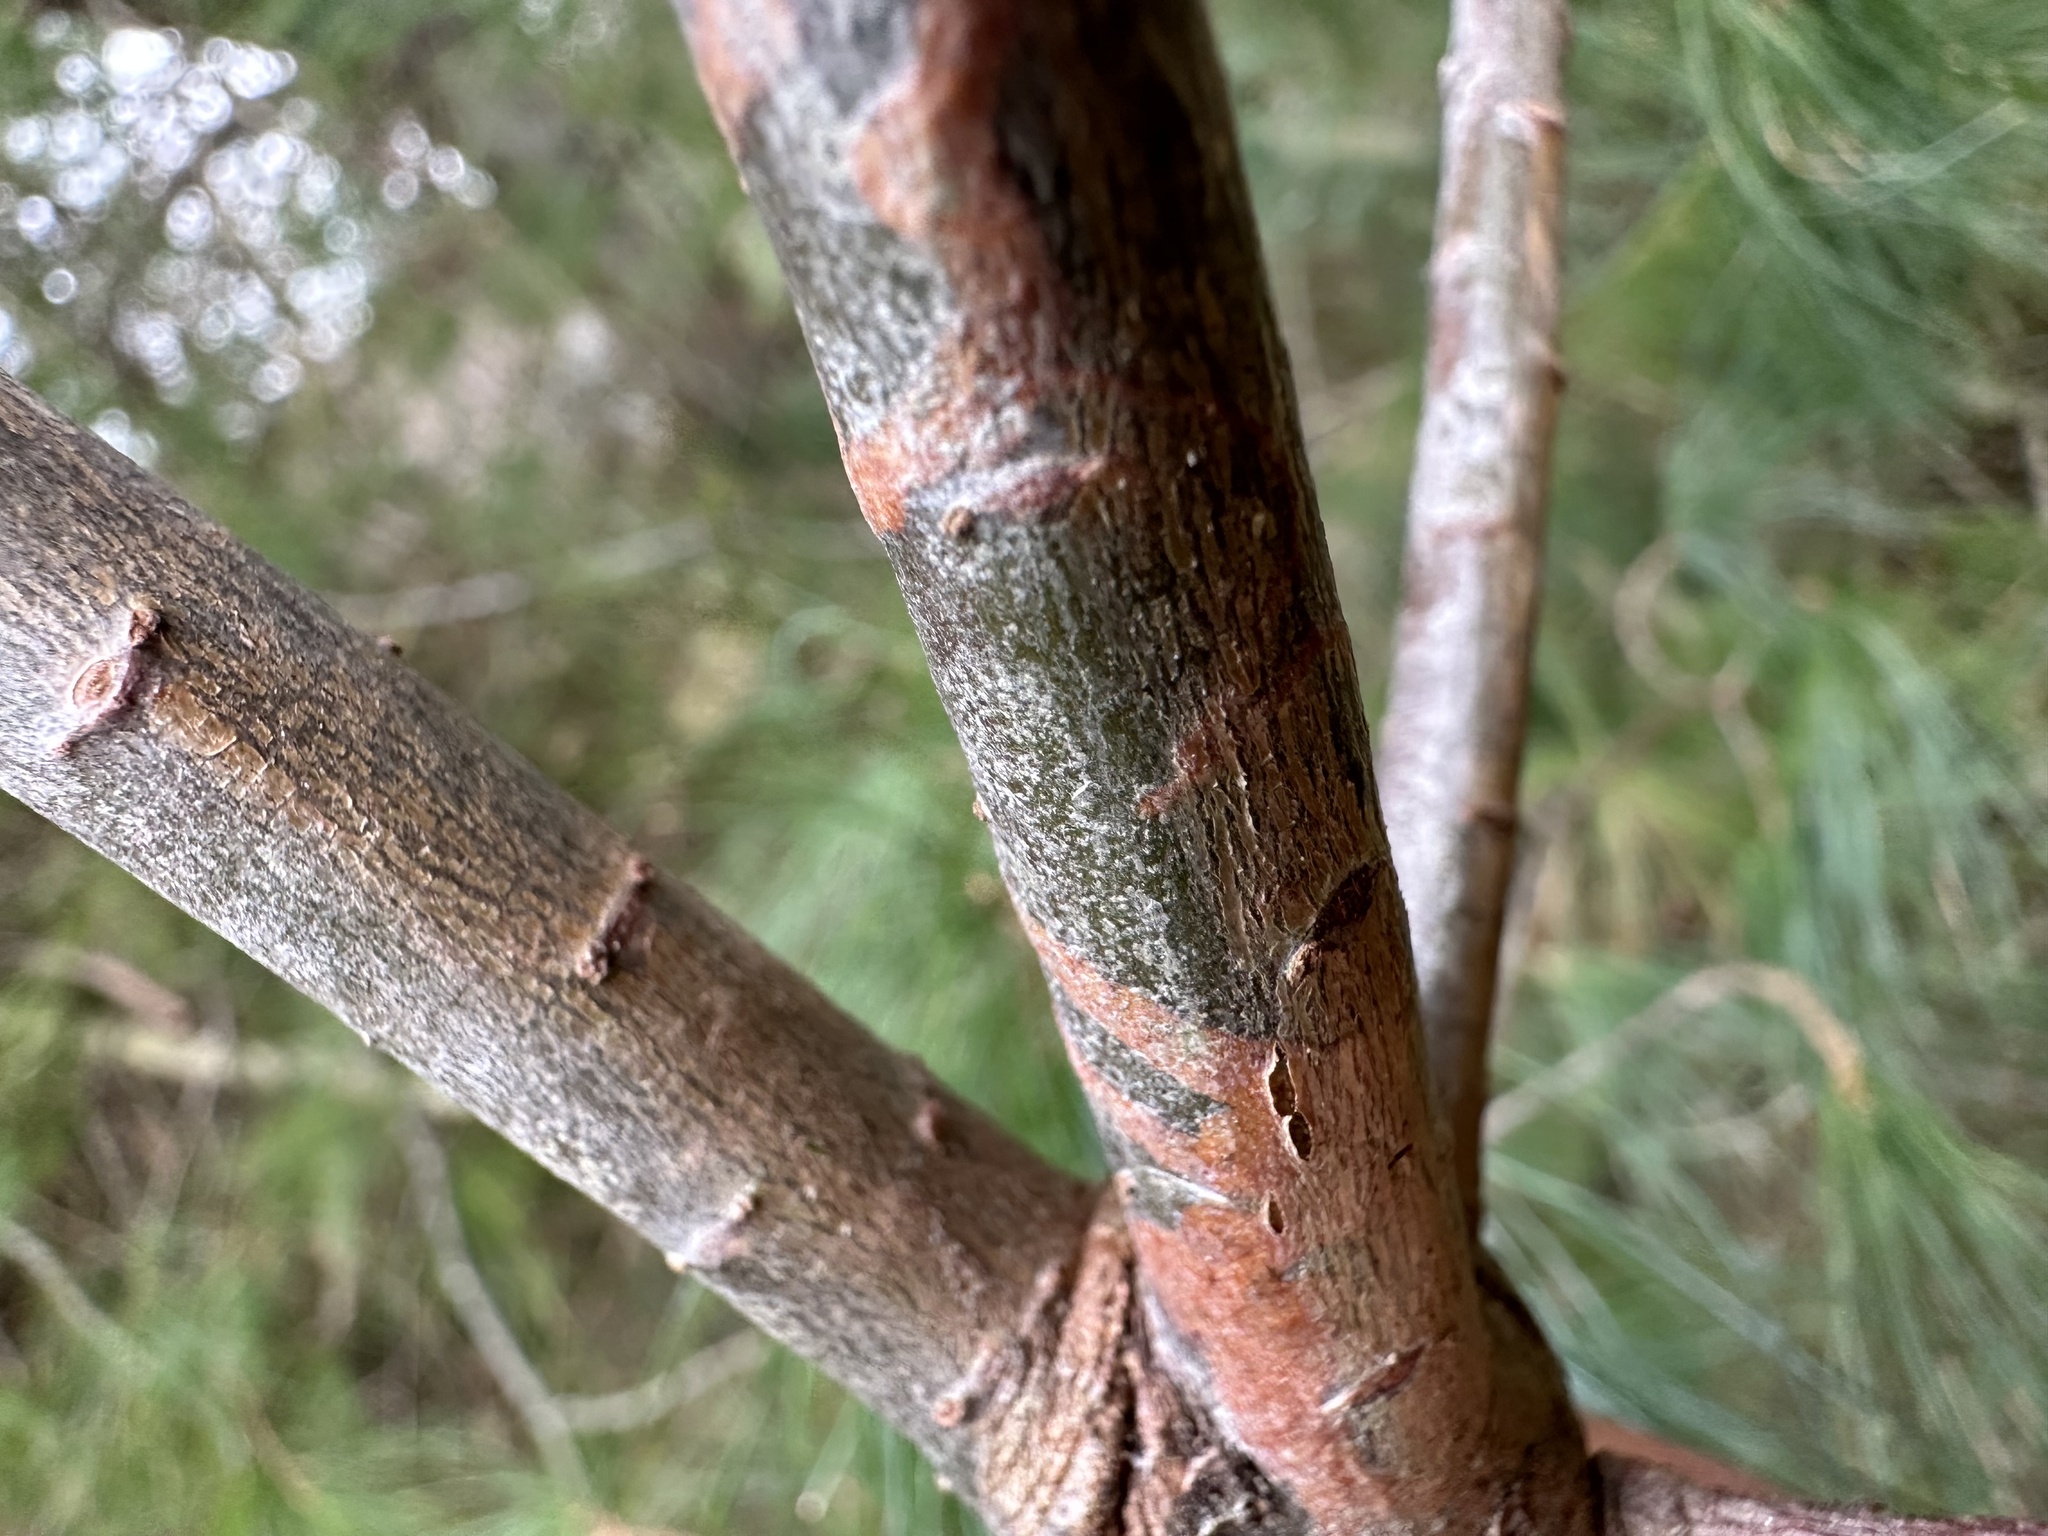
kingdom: Animalia
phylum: Arthropoda
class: Insecta
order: Lepidoptera
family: Gracillariidae
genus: Marmara
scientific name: Marmara fasciella
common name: White pine barkminer moth
